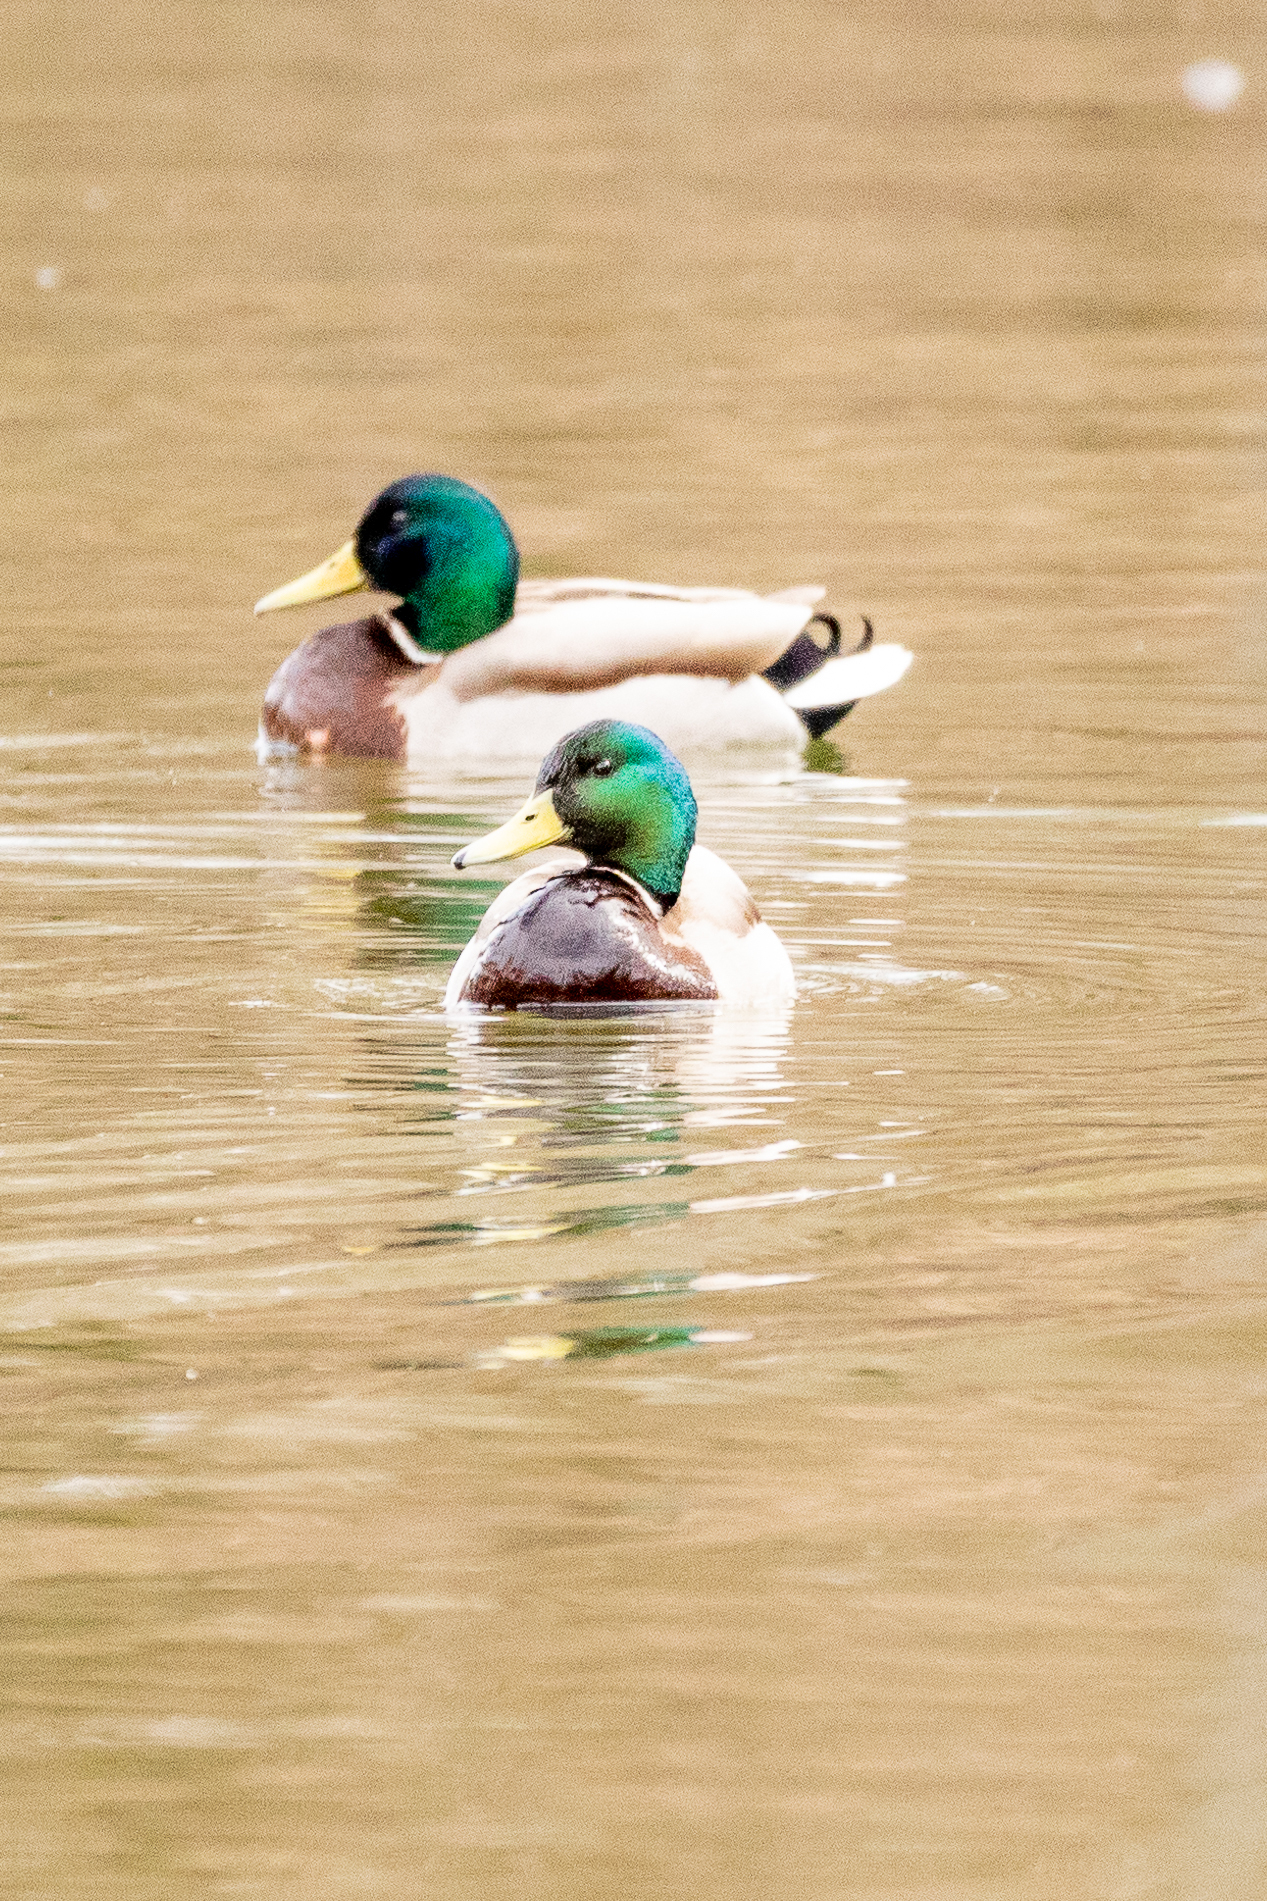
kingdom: Animalia
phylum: Chordata
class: Aves
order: Anseriformes
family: Anatidae
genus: Anas
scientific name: Anas platyrhynchos
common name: Mallard
